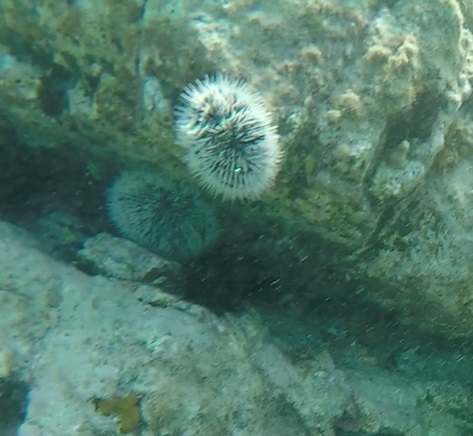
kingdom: Animalia
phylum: Echinodermata
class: Echinoidea
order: Camarodonta
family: Toxopneustidae
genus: Tripneustes
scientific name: Tripneustes ventricosus
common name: West indian sea egg
